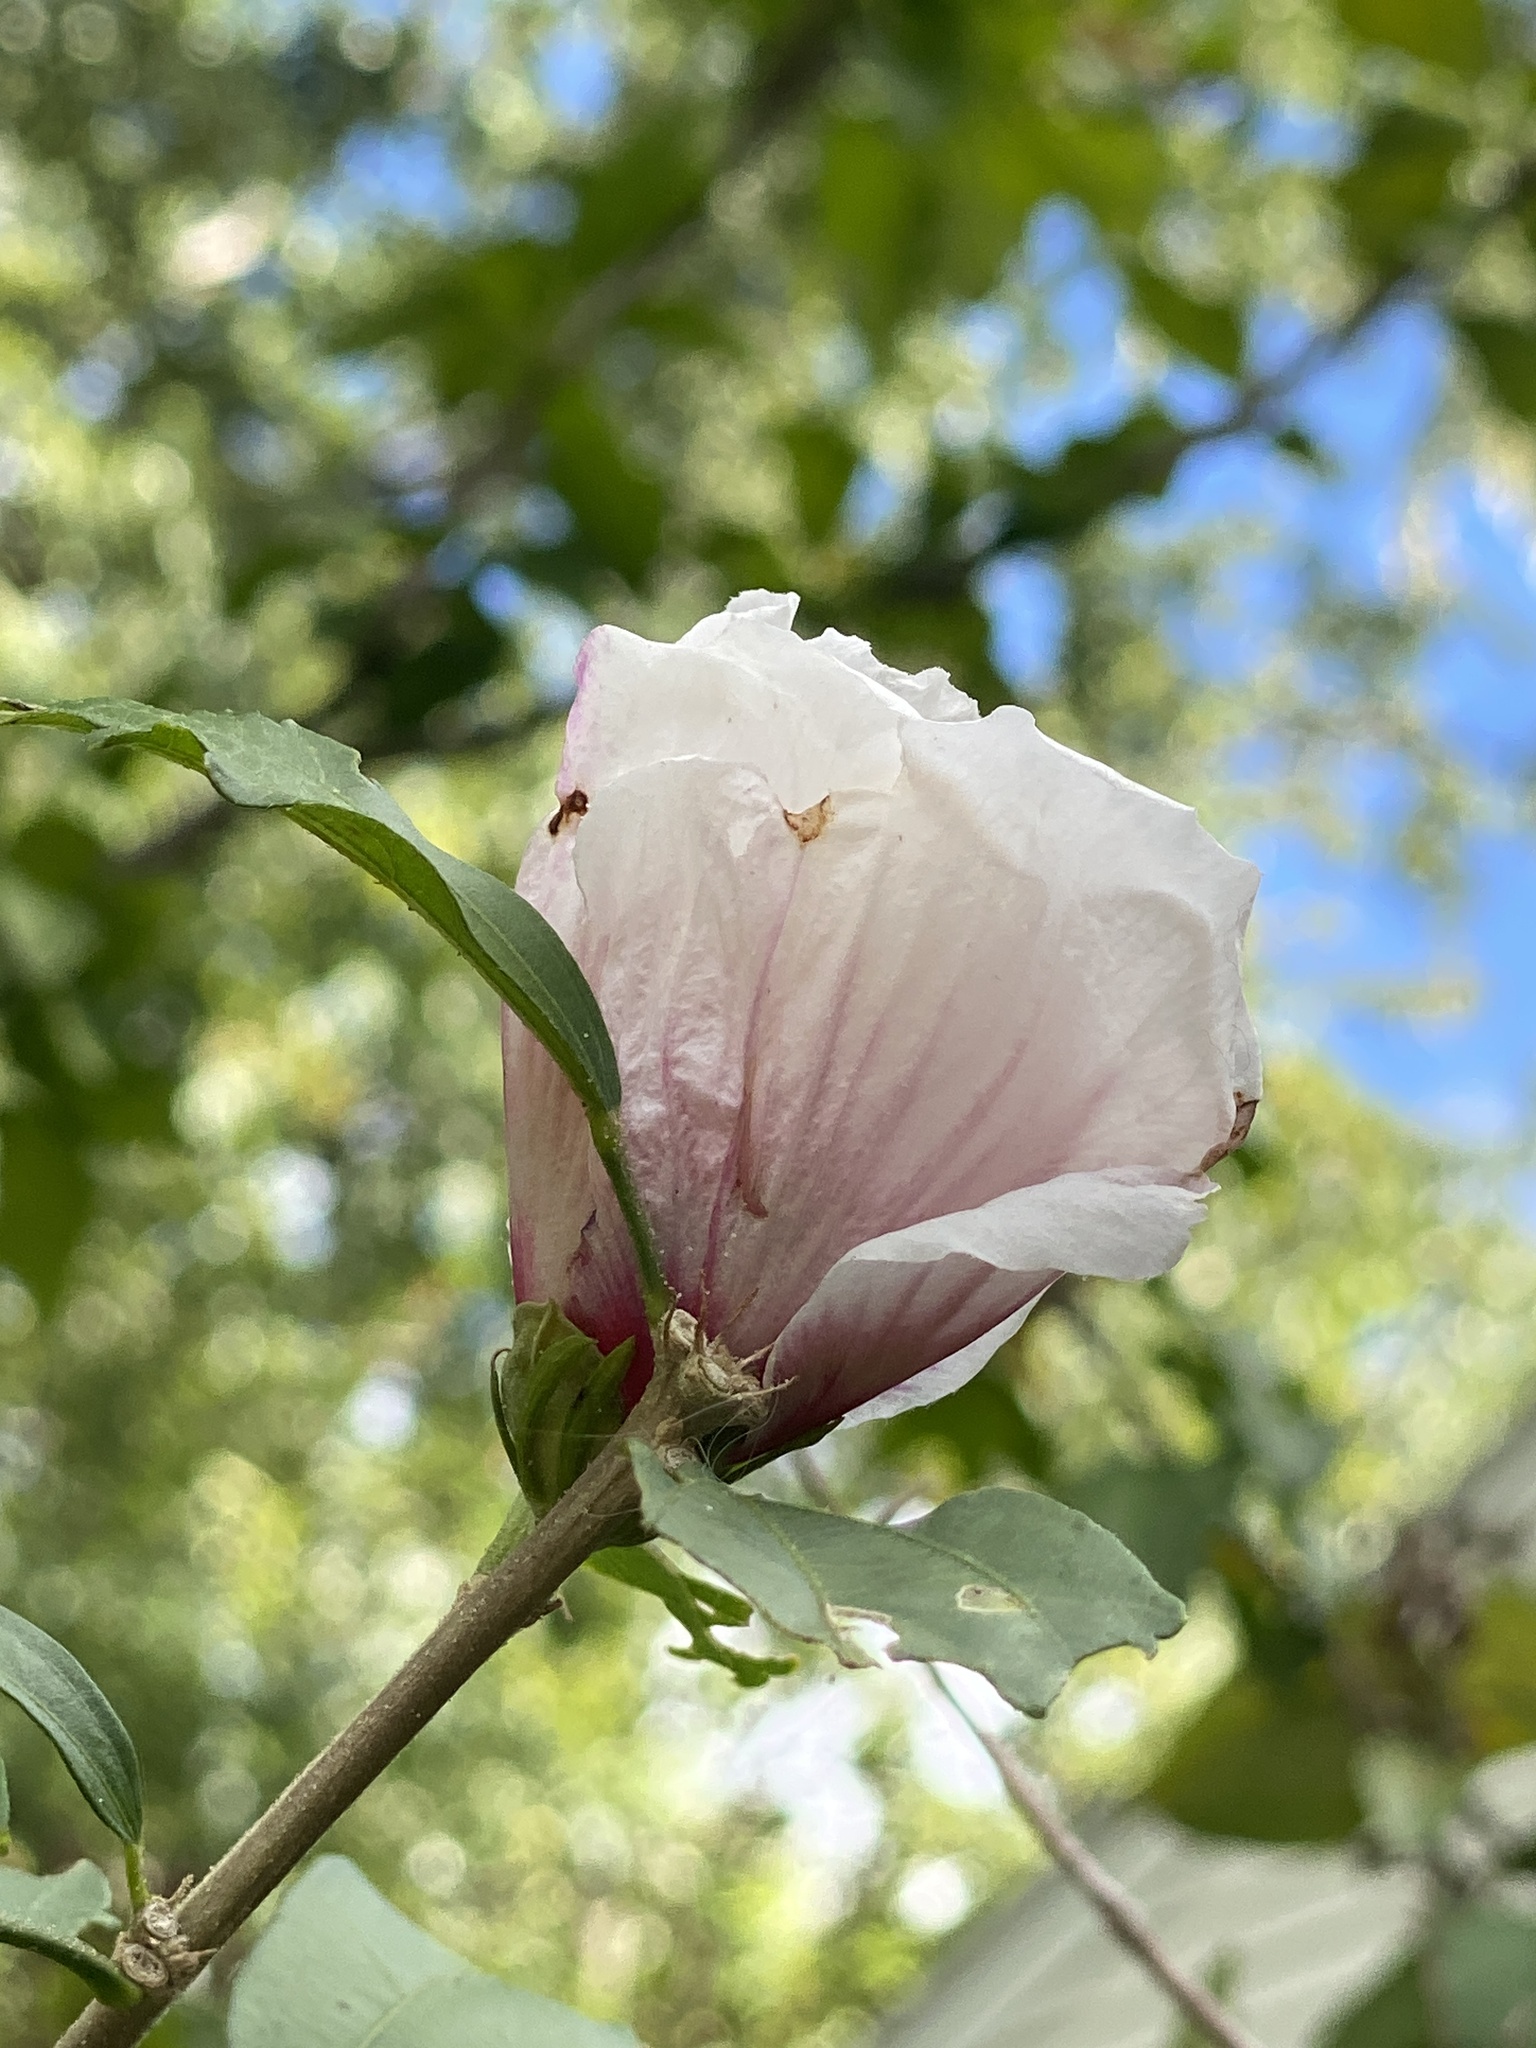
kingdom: Plantae
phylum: Tracheophyta
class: Magnoliopsida
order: Malvales
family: Malvaceae
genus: Hibiscus
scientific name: Hibiscus syriacus
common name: Syrian ketmia
